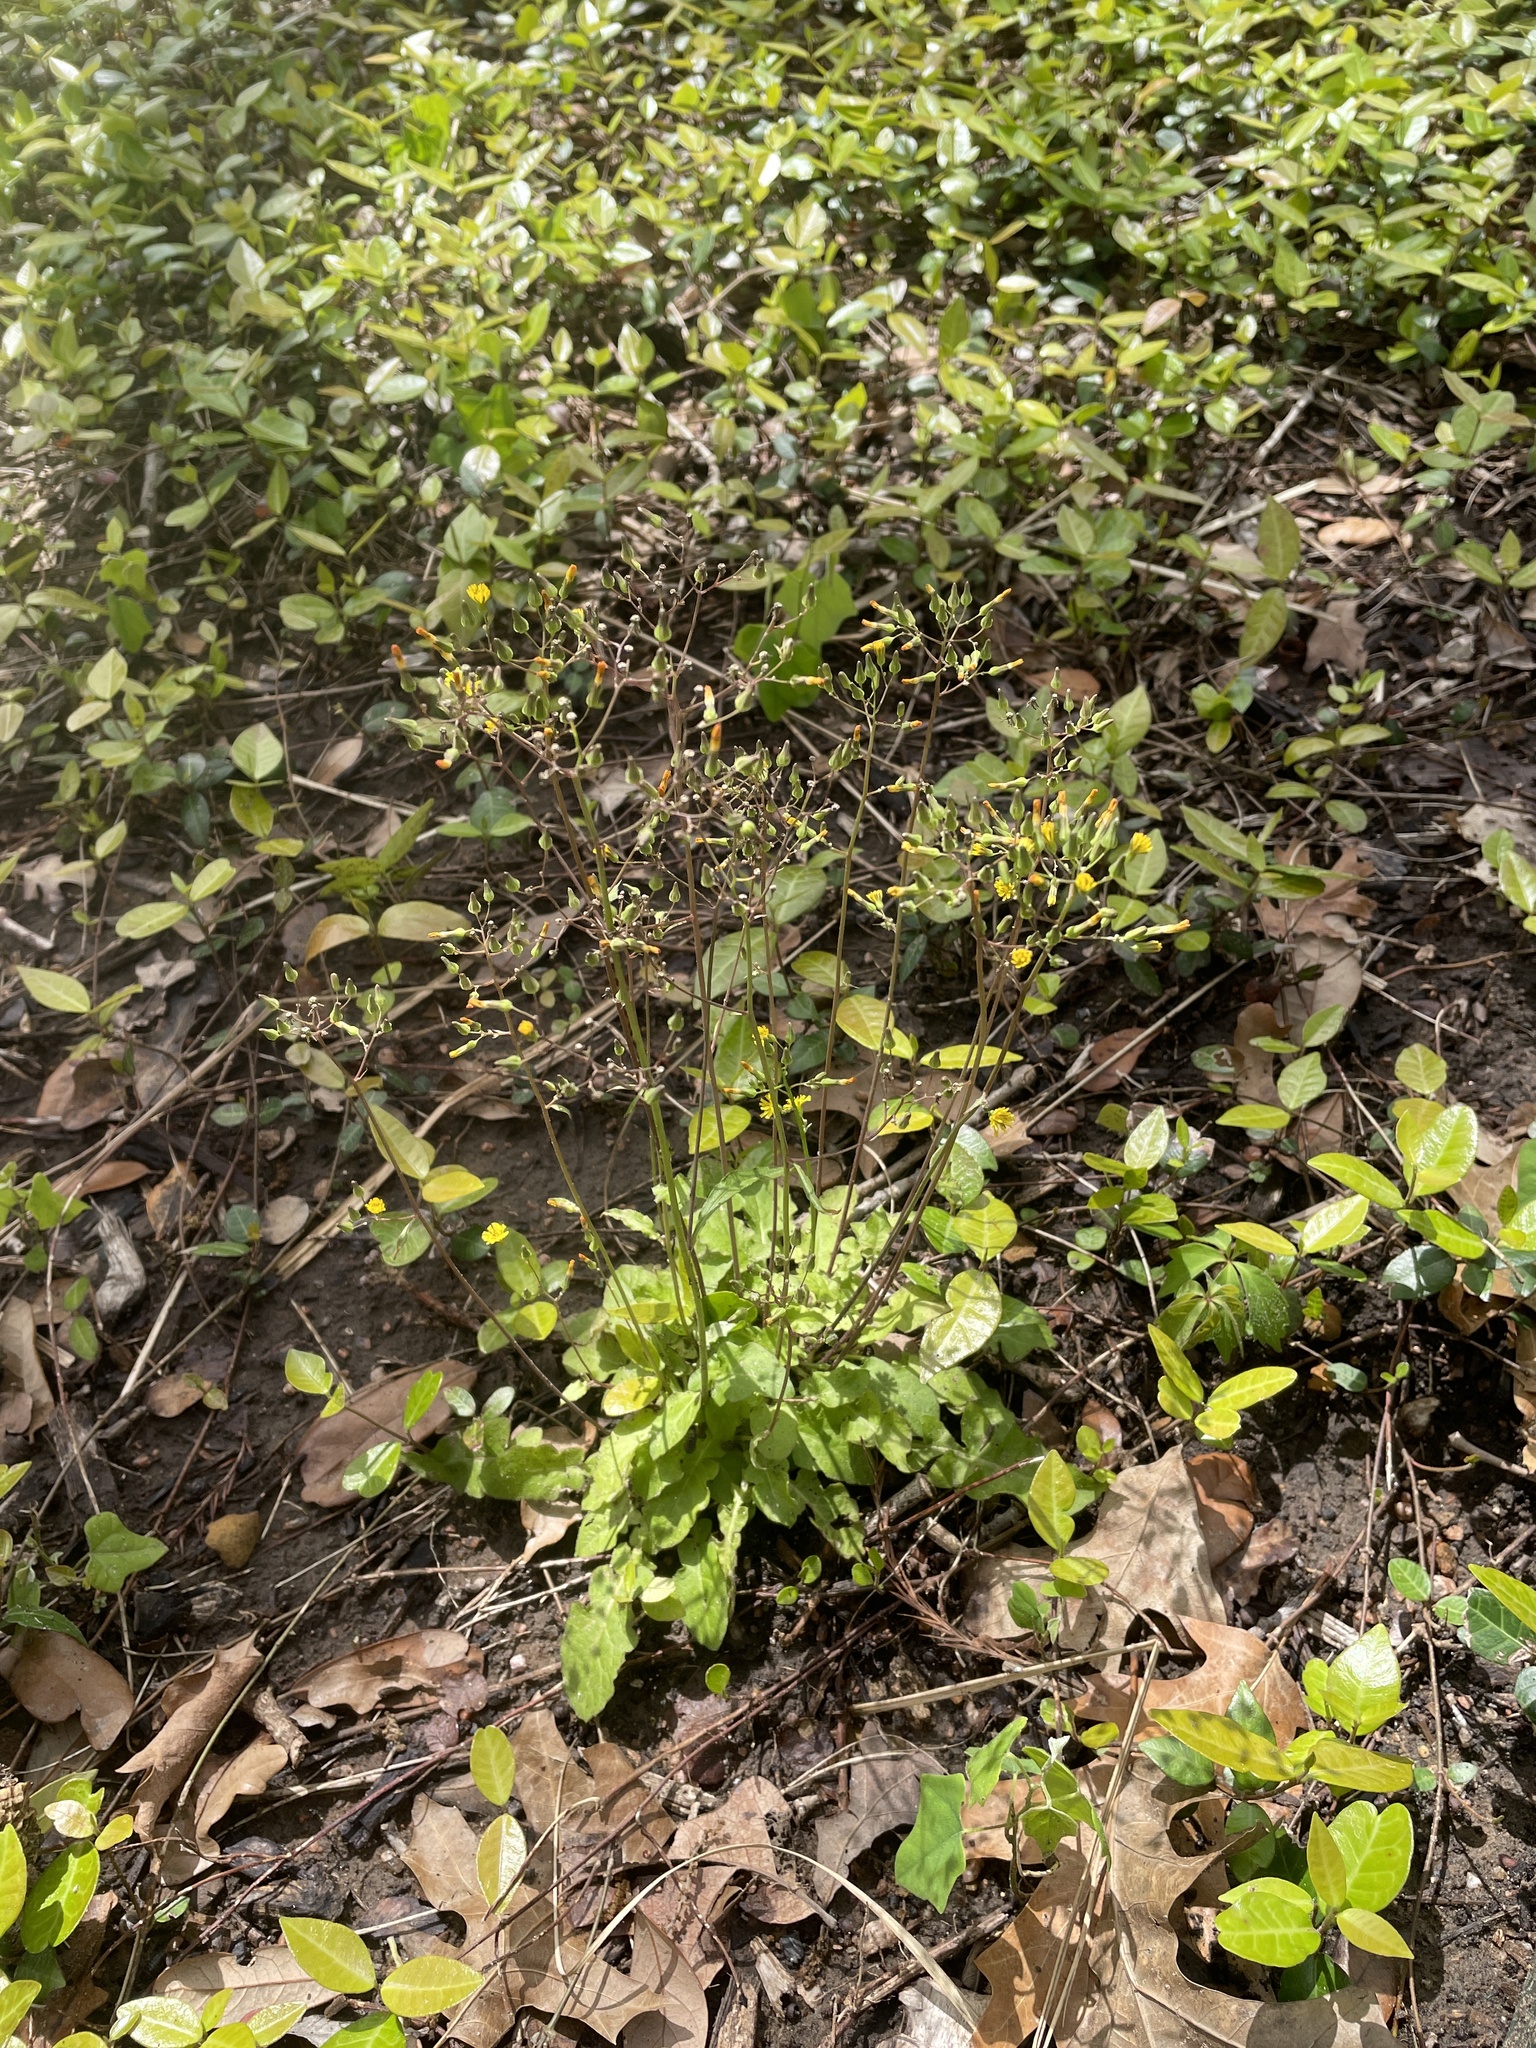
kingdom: Plantae
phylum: Tracheophyta
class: Magnoliopsida
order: Asterales
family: Asteraceae
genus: Youngia
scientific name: Youngia japonica
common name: Oriental false hawksbeard
